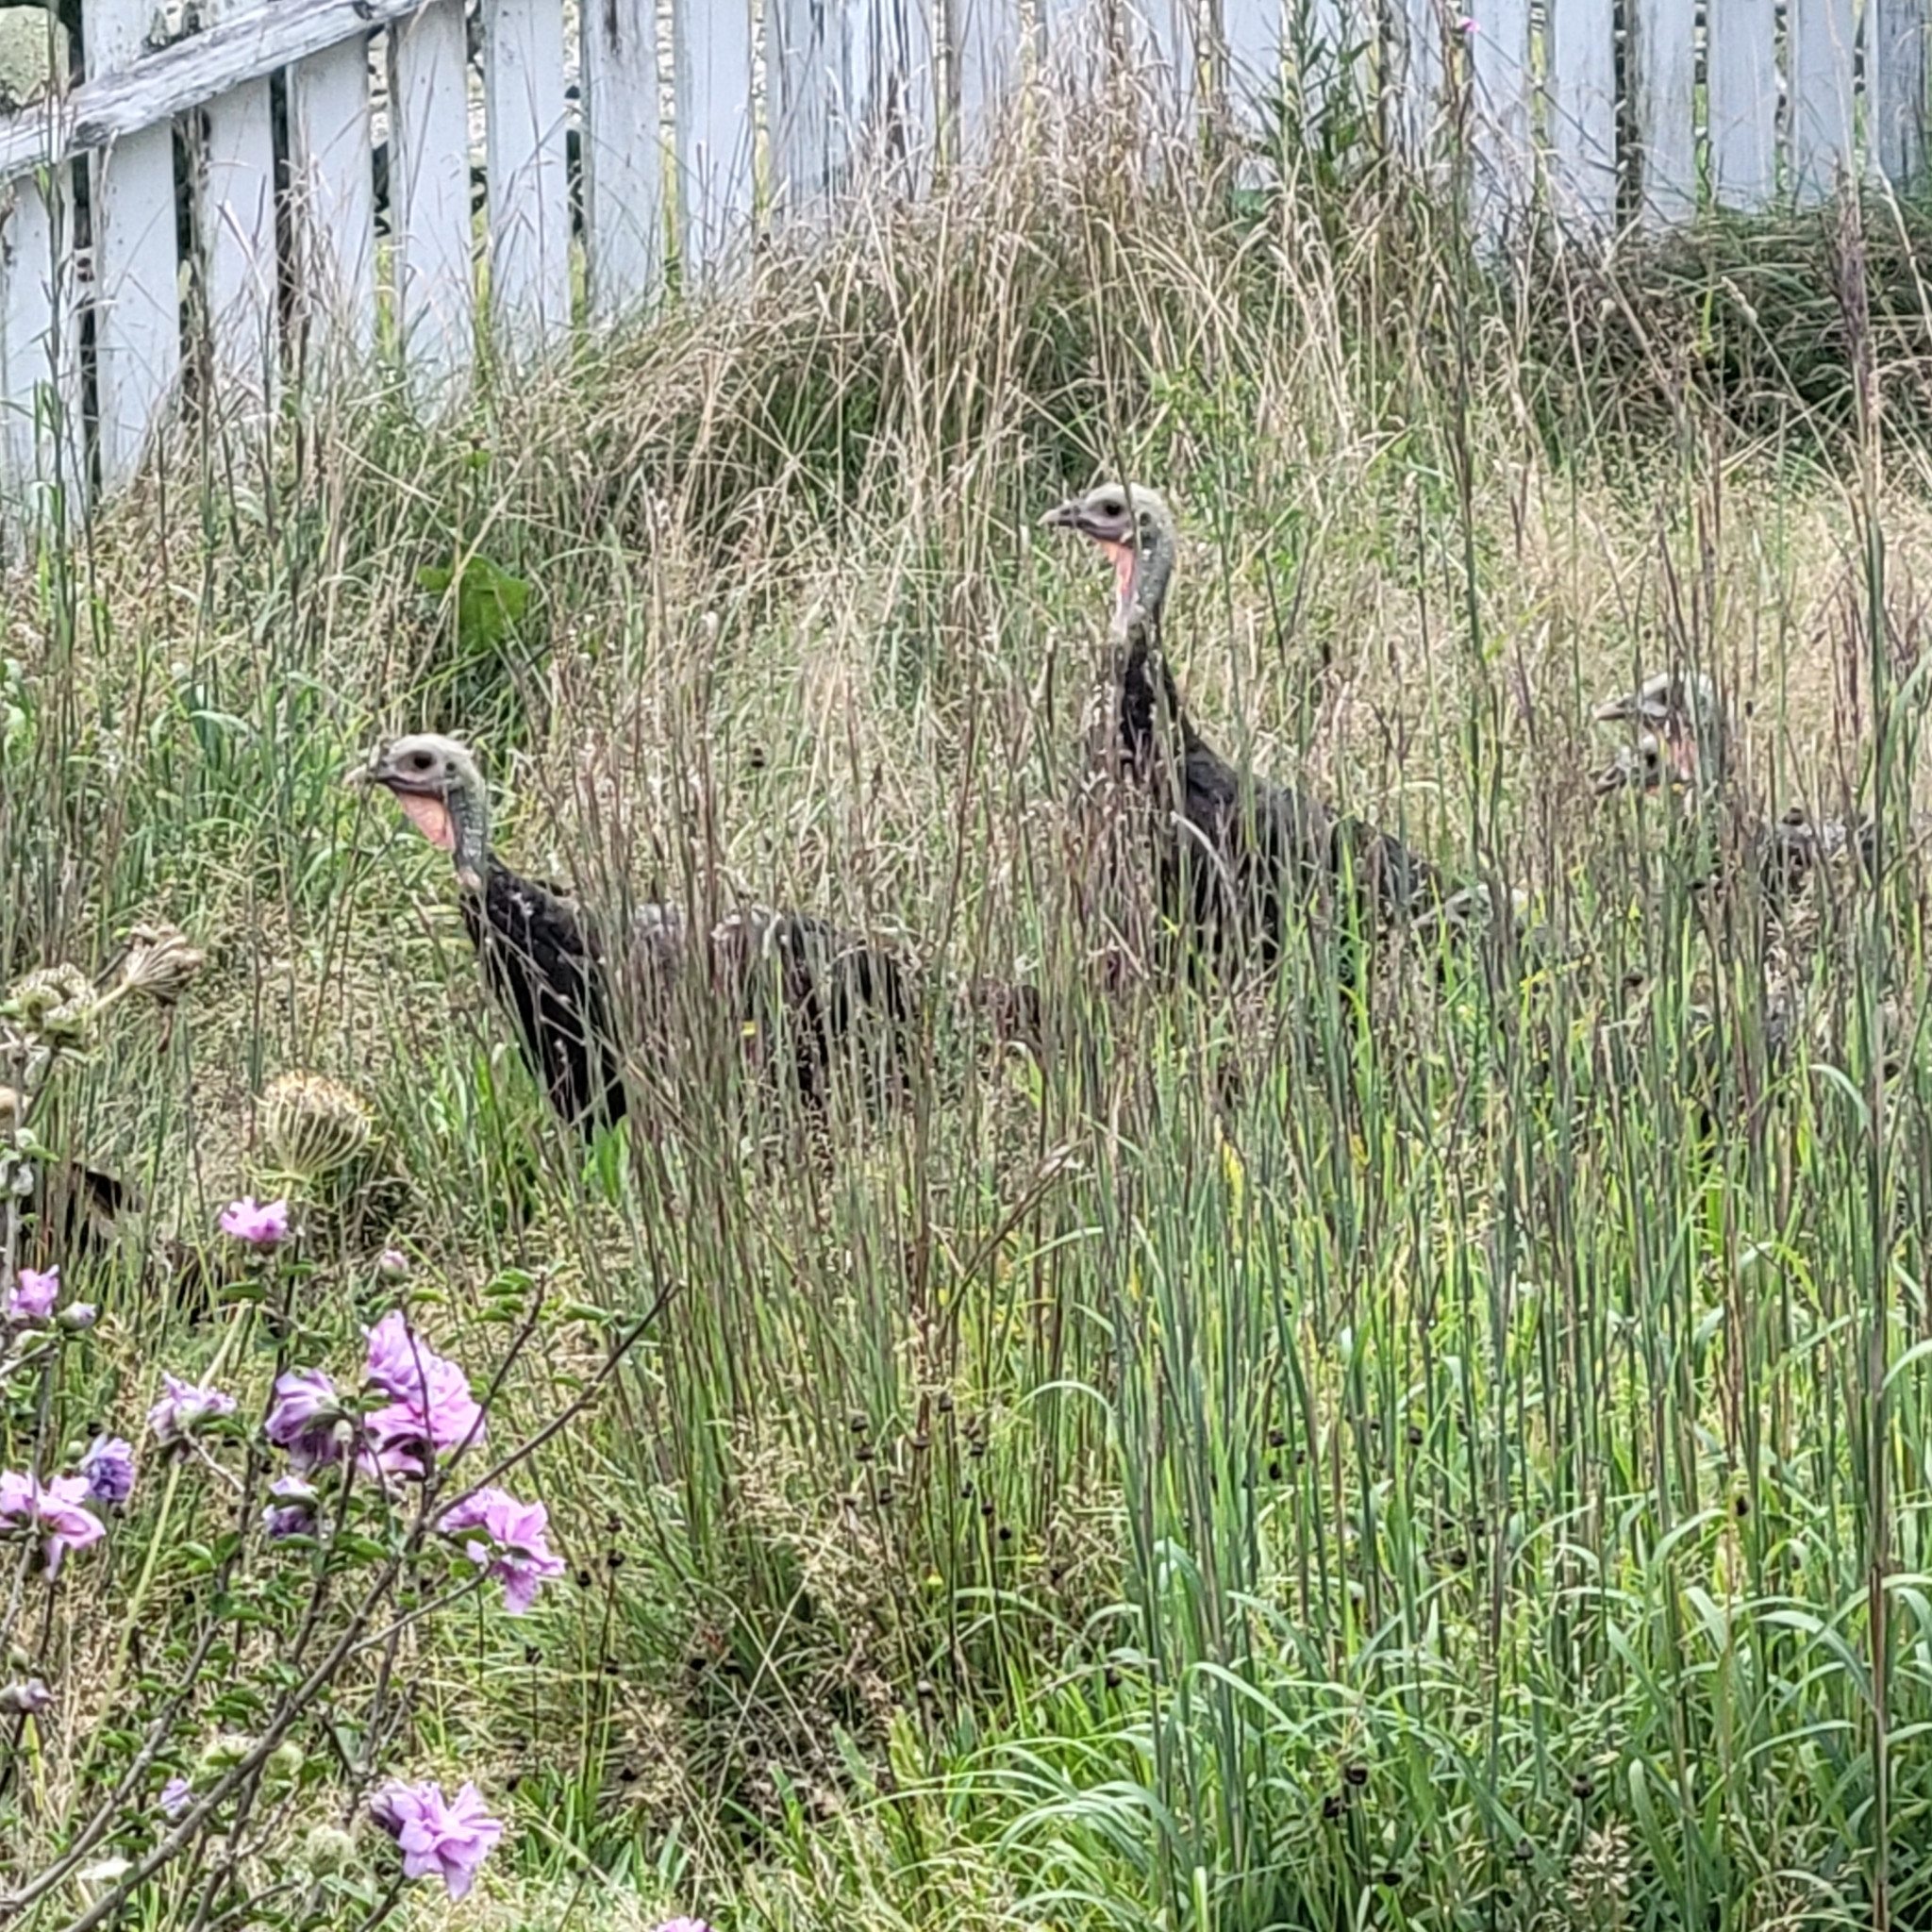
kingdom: Animalia
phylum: Chordata
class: Aves
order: Galliformes
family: Phasianidae
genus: Meleagris
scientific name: Meleagris gallopavo
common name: Wild turkey
